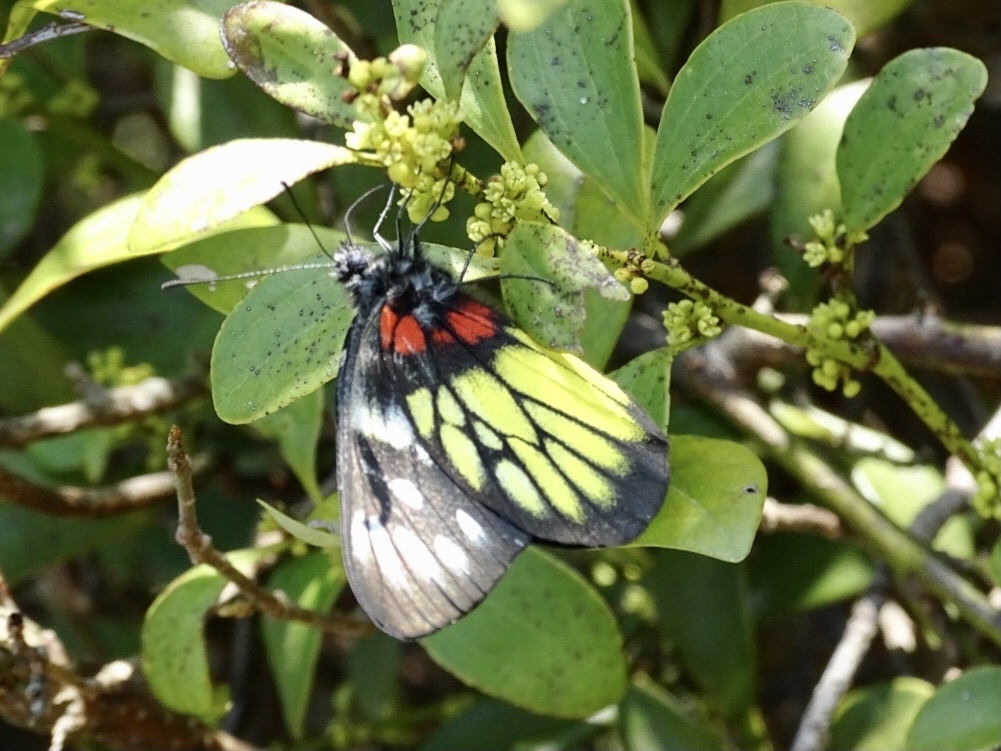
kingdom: Animalia
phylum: Arthropoda
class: Insecta
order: Lepidoptera
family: Pieridae
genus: Delias
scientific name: Delias pasithoe
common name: Red-base jezebel
